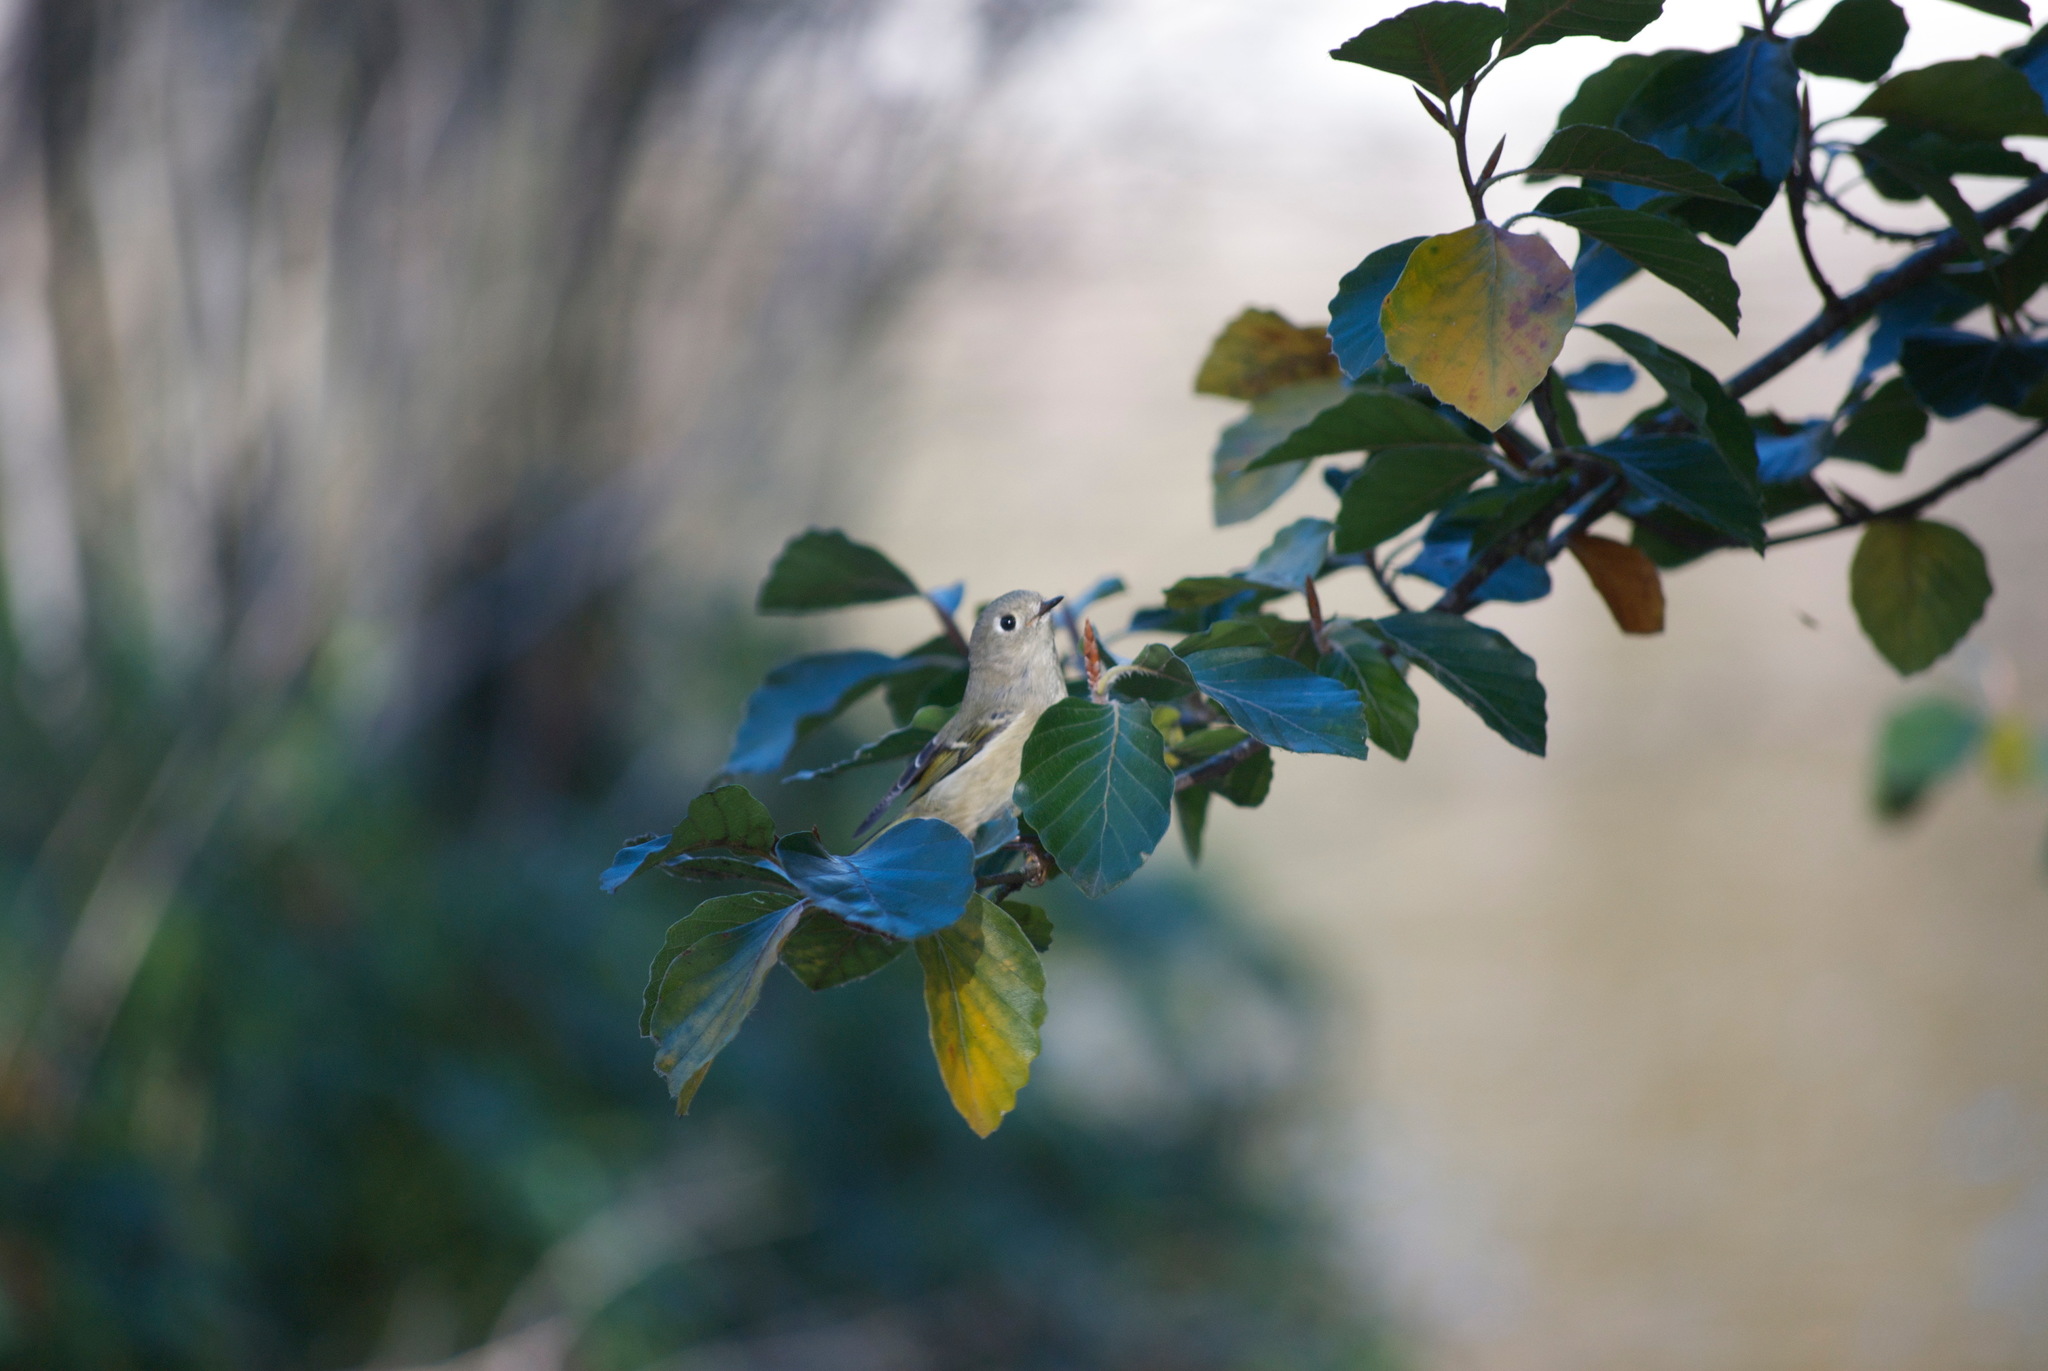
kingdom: Animalia
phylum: Chordata
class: Aves
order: Passeriformes
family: Regulidae
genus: Regulus
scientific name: Regulus calendula
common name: Ruby-crowned kinglet
